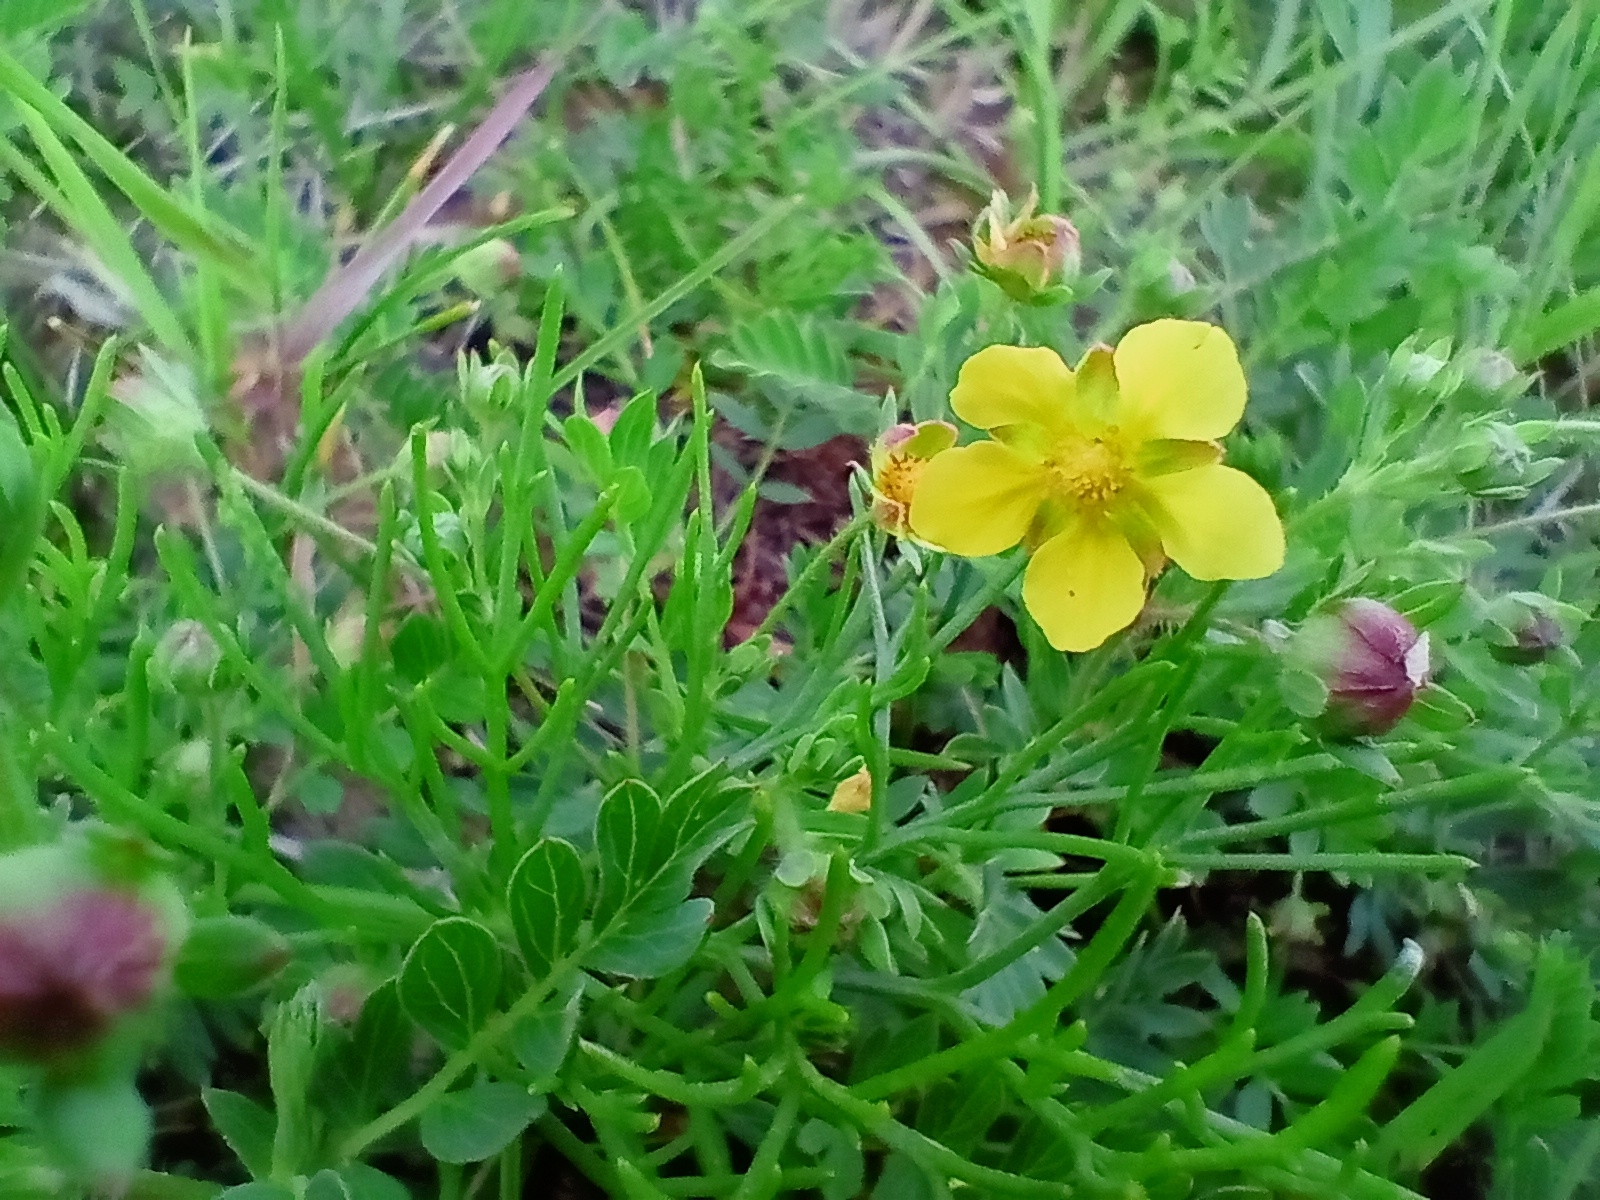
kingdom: Plantae
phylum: Tracheophyta
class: Magnoliopsida
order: Rosales
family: Rosaceae
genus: Sibbaldianthe
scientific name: Sibbaldianthe bifurca
